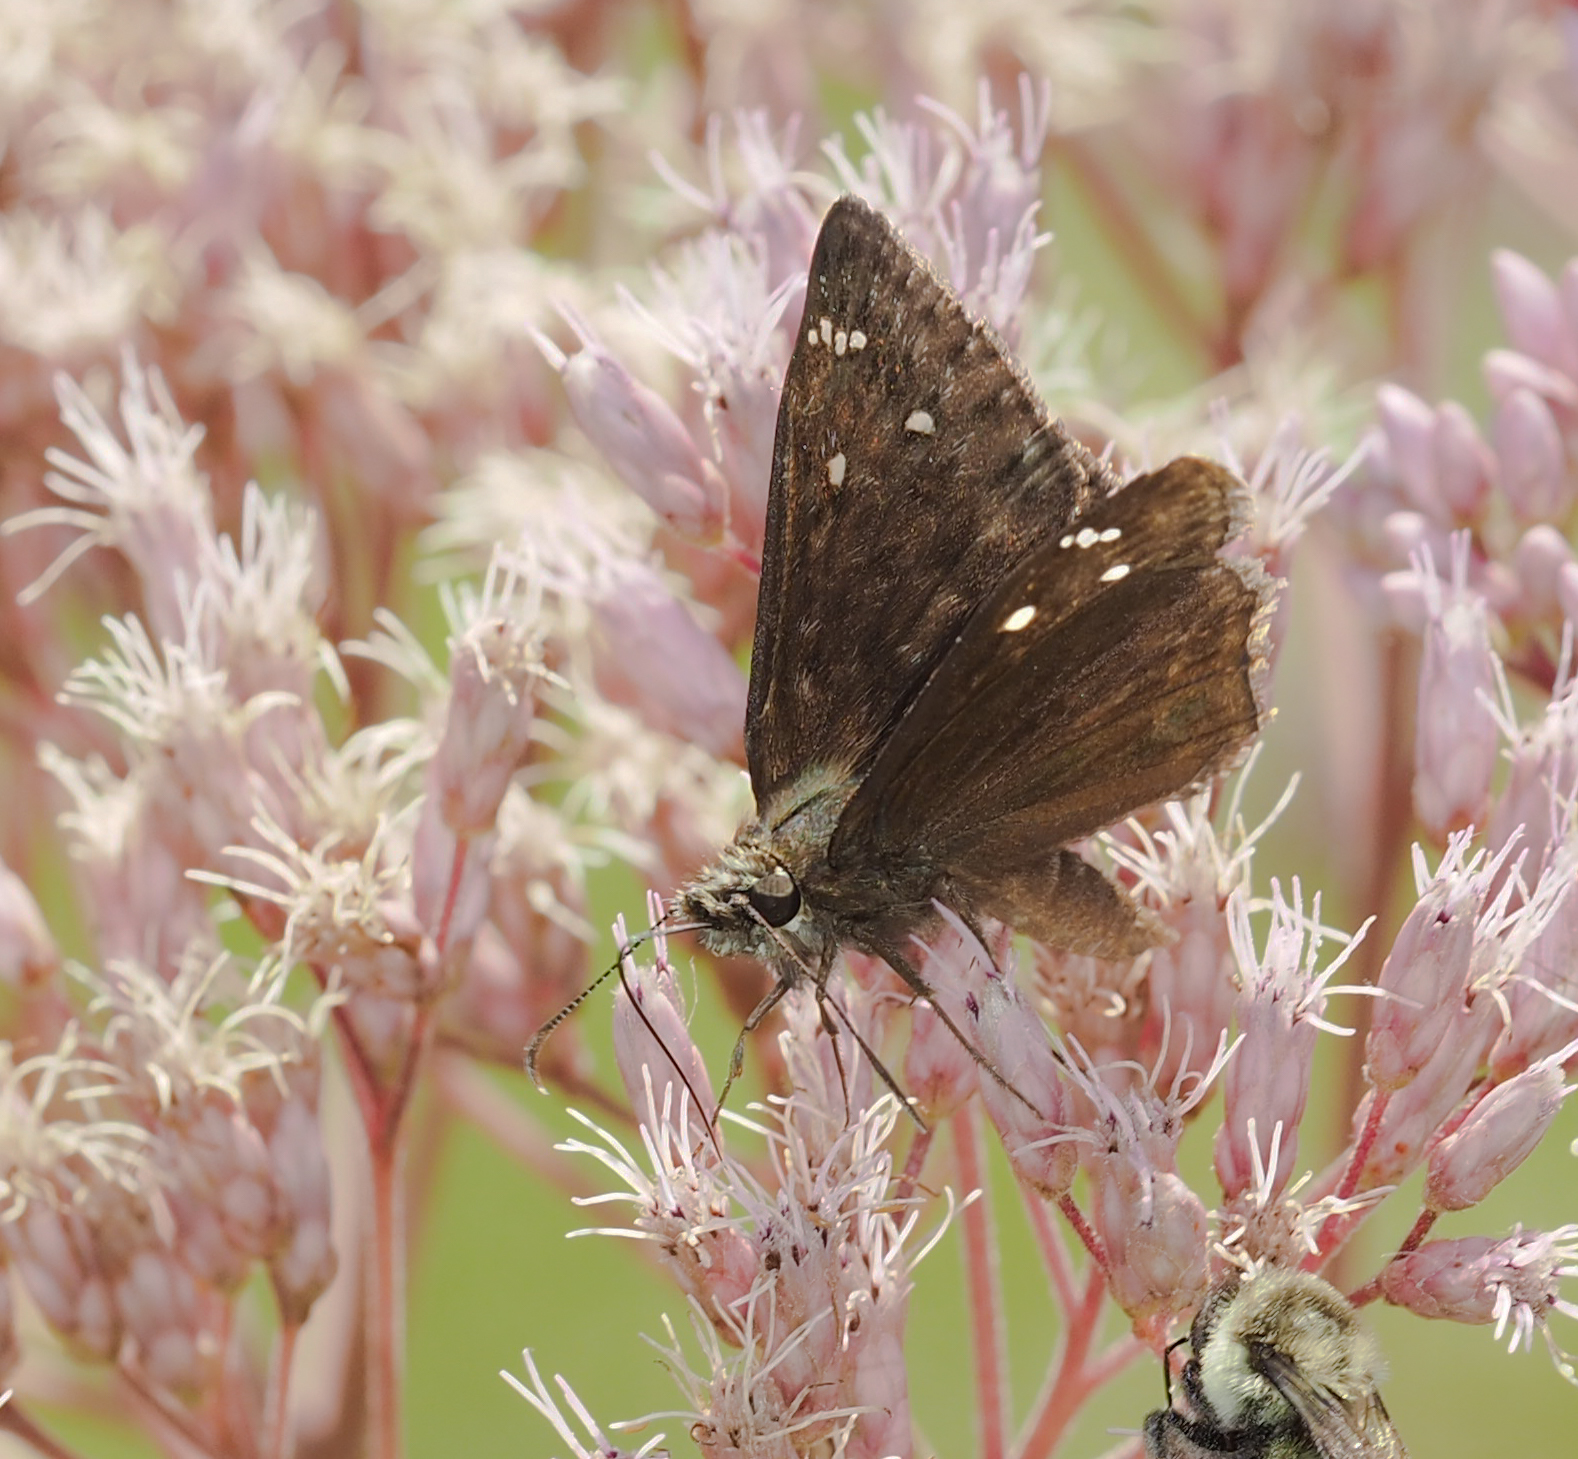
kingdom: Animalia
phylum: Arthropoda
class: Insecta
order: Lepidoptera
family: Hesperiidae
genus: Erynnis
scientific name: Erynnis horatius
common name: Horace's duskywing
